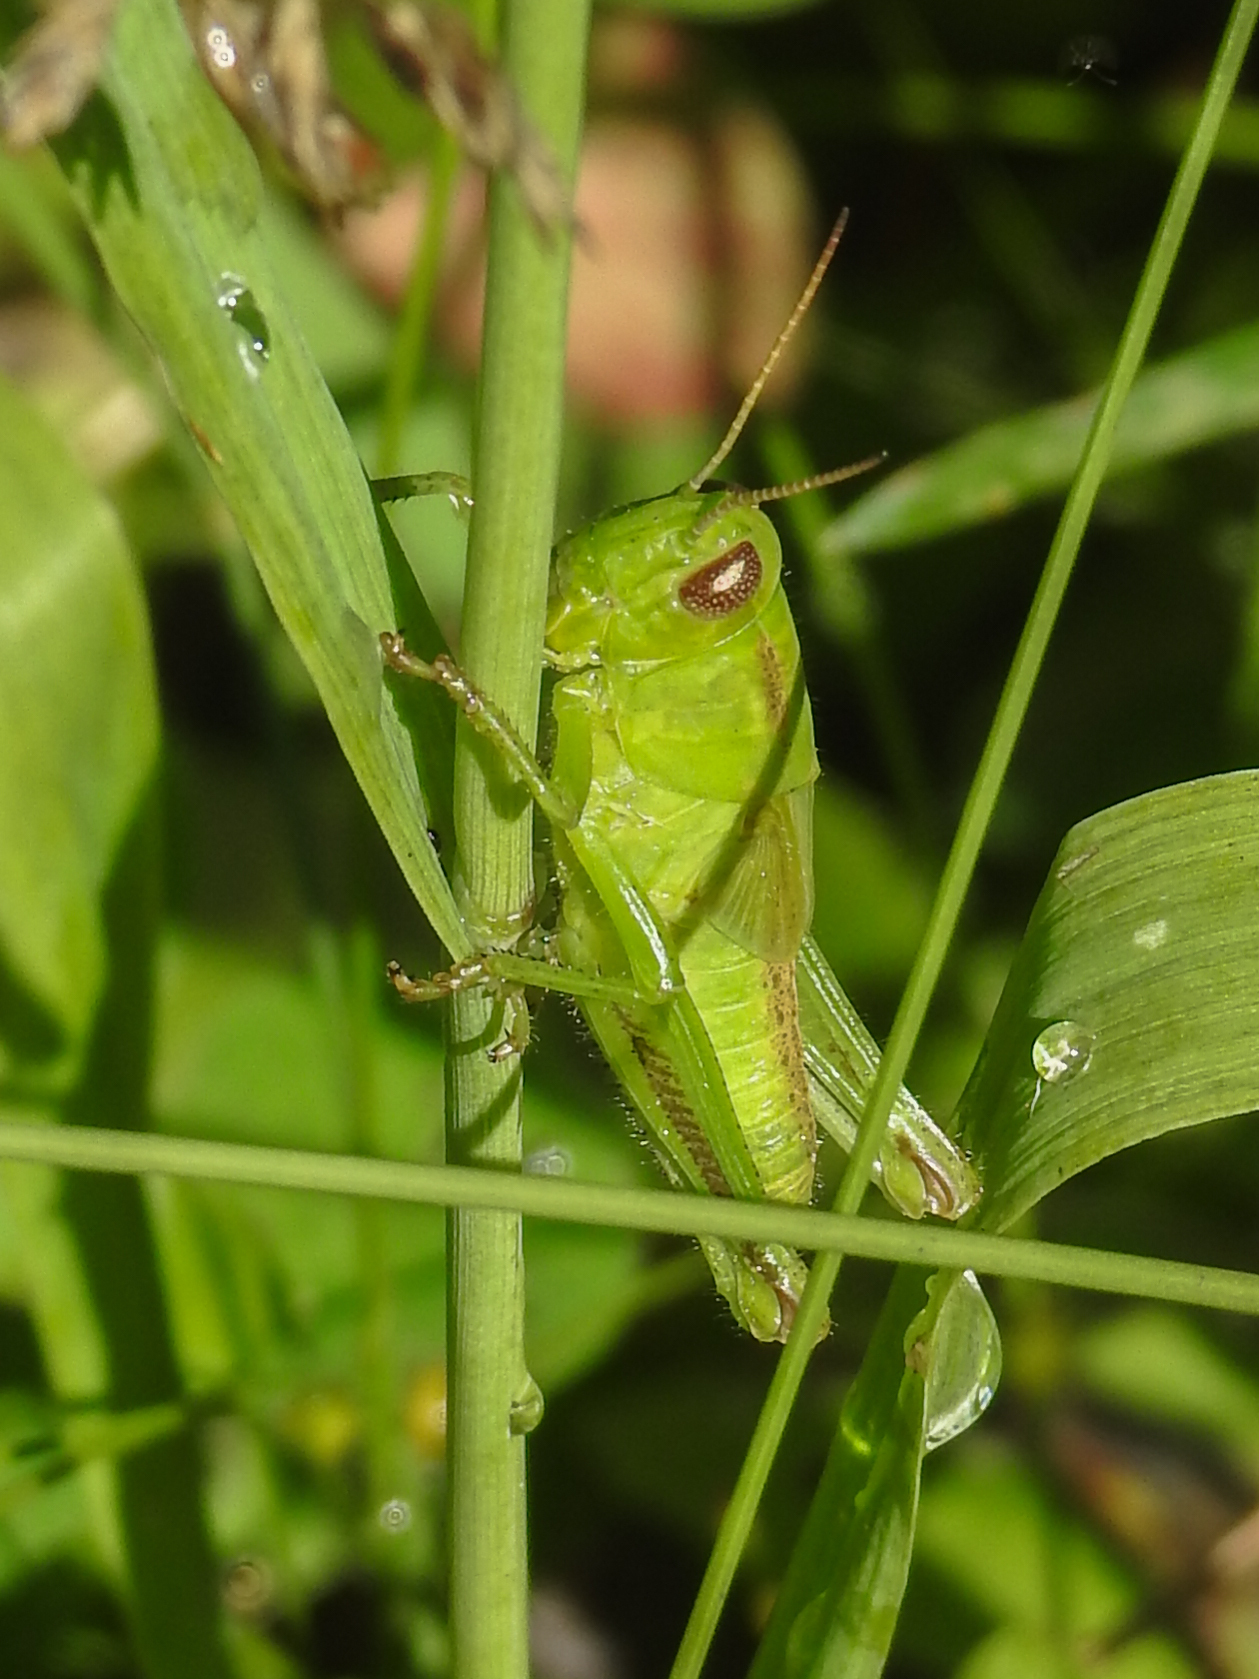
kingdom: Animalia
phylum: Arthropoda
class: Insecta
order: Orthoptera
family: Acrididae
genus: Melanoplus
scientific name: Melanoplus bivittatus
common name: Two-striped grasshopper
